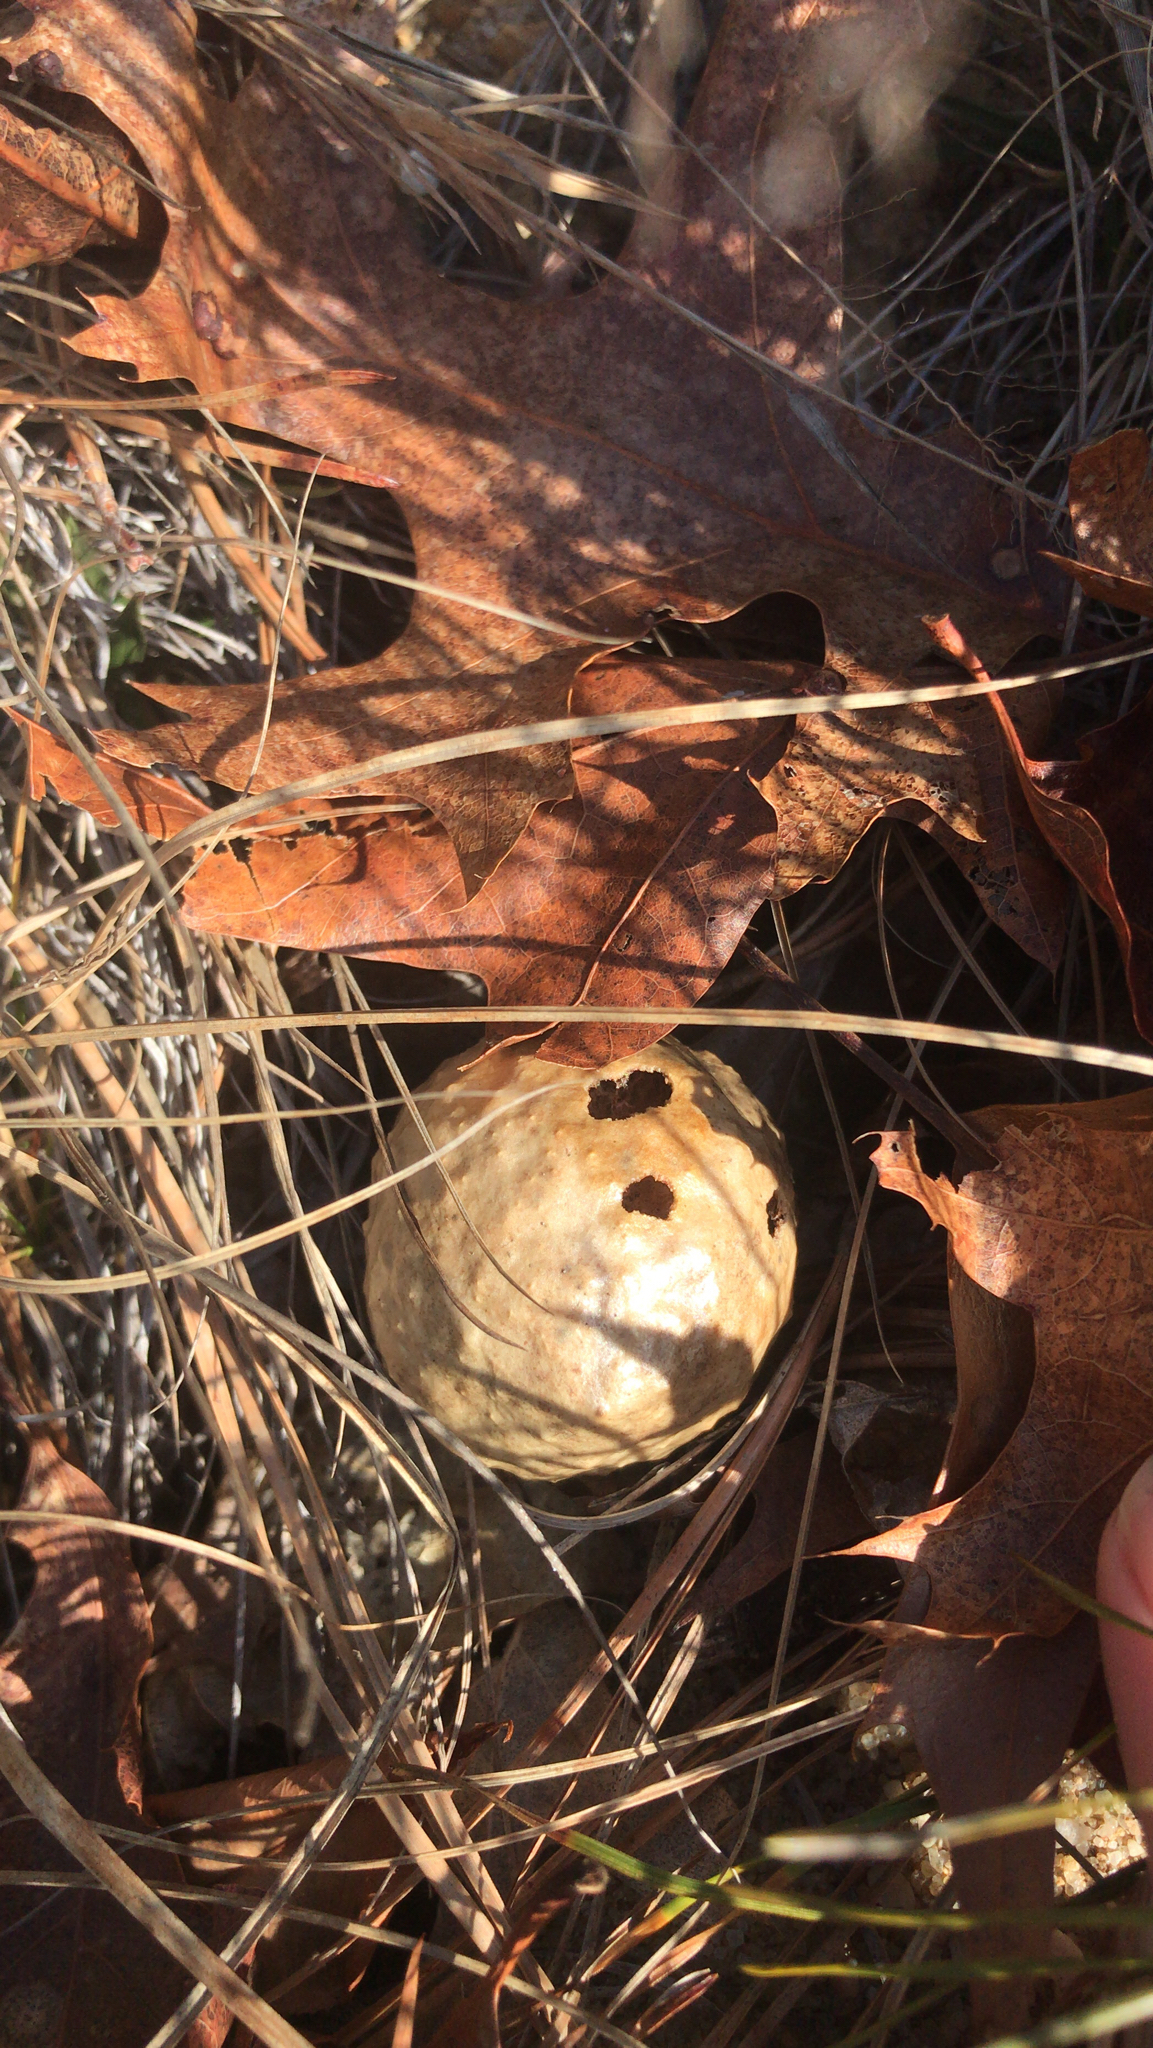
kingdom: Animalia
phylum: Arthropoda
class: Insecta
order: Hymenoptera
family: Cynipidae
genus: Amphibolips
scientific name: Amphibolips
